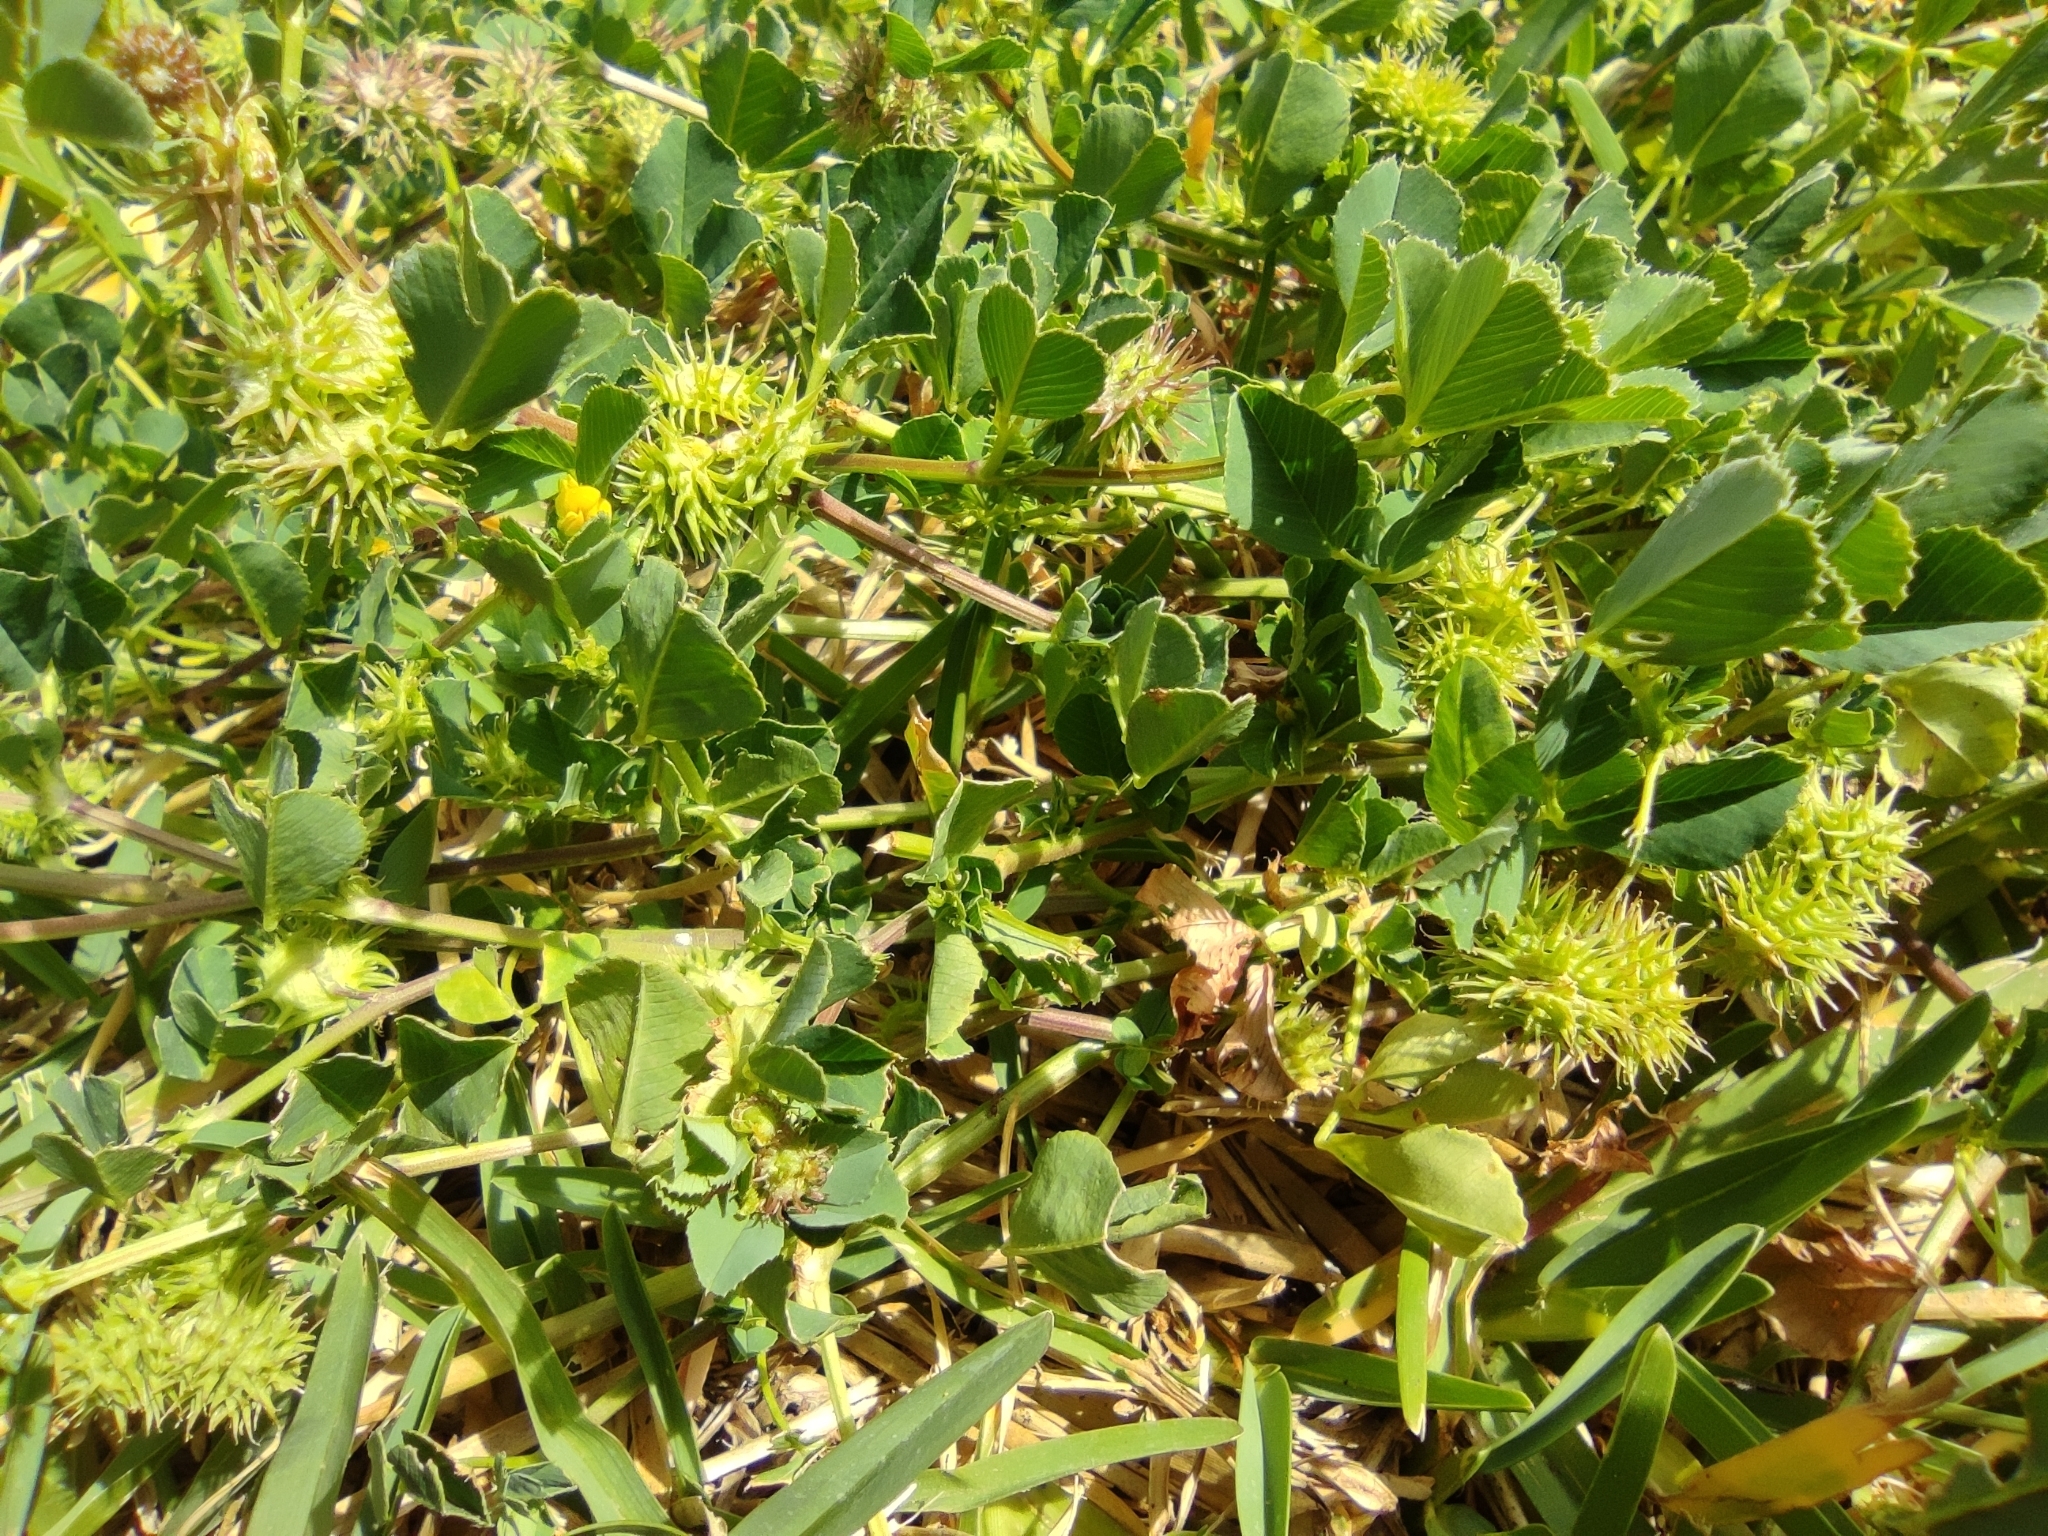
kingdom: Plantae
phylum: Tracheophyta
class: Magnoliopsida
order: Fabales
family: Fabaceae
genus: Medicago
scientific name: Medicago polymorpha
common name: Burclover
